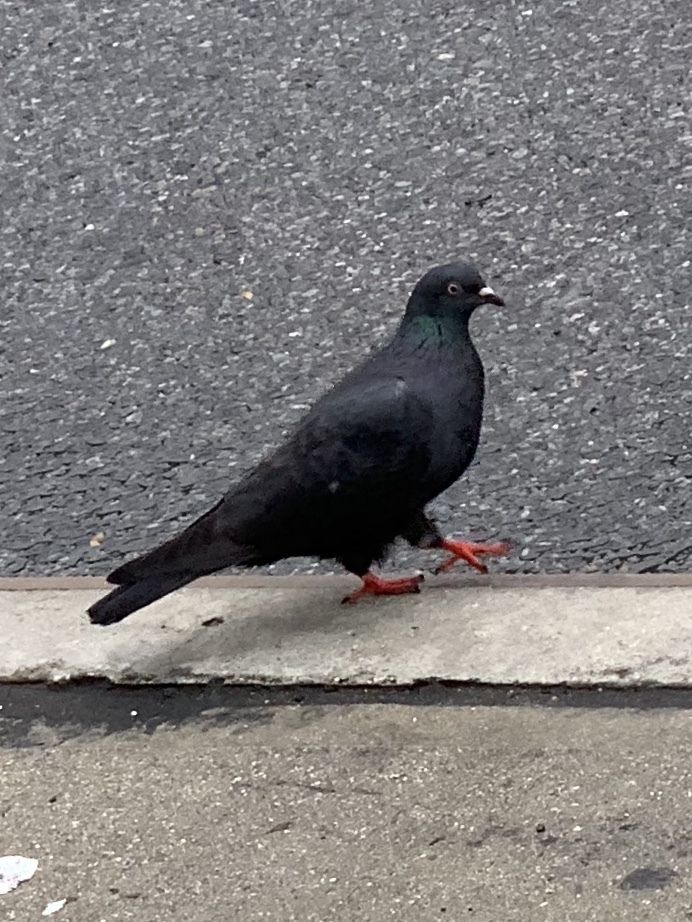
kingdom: Animalia
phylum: Chordata
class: Aves
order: Columbiformes
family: Columbidae
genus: Columba
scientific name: Columba livia
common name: Rock pigeon
